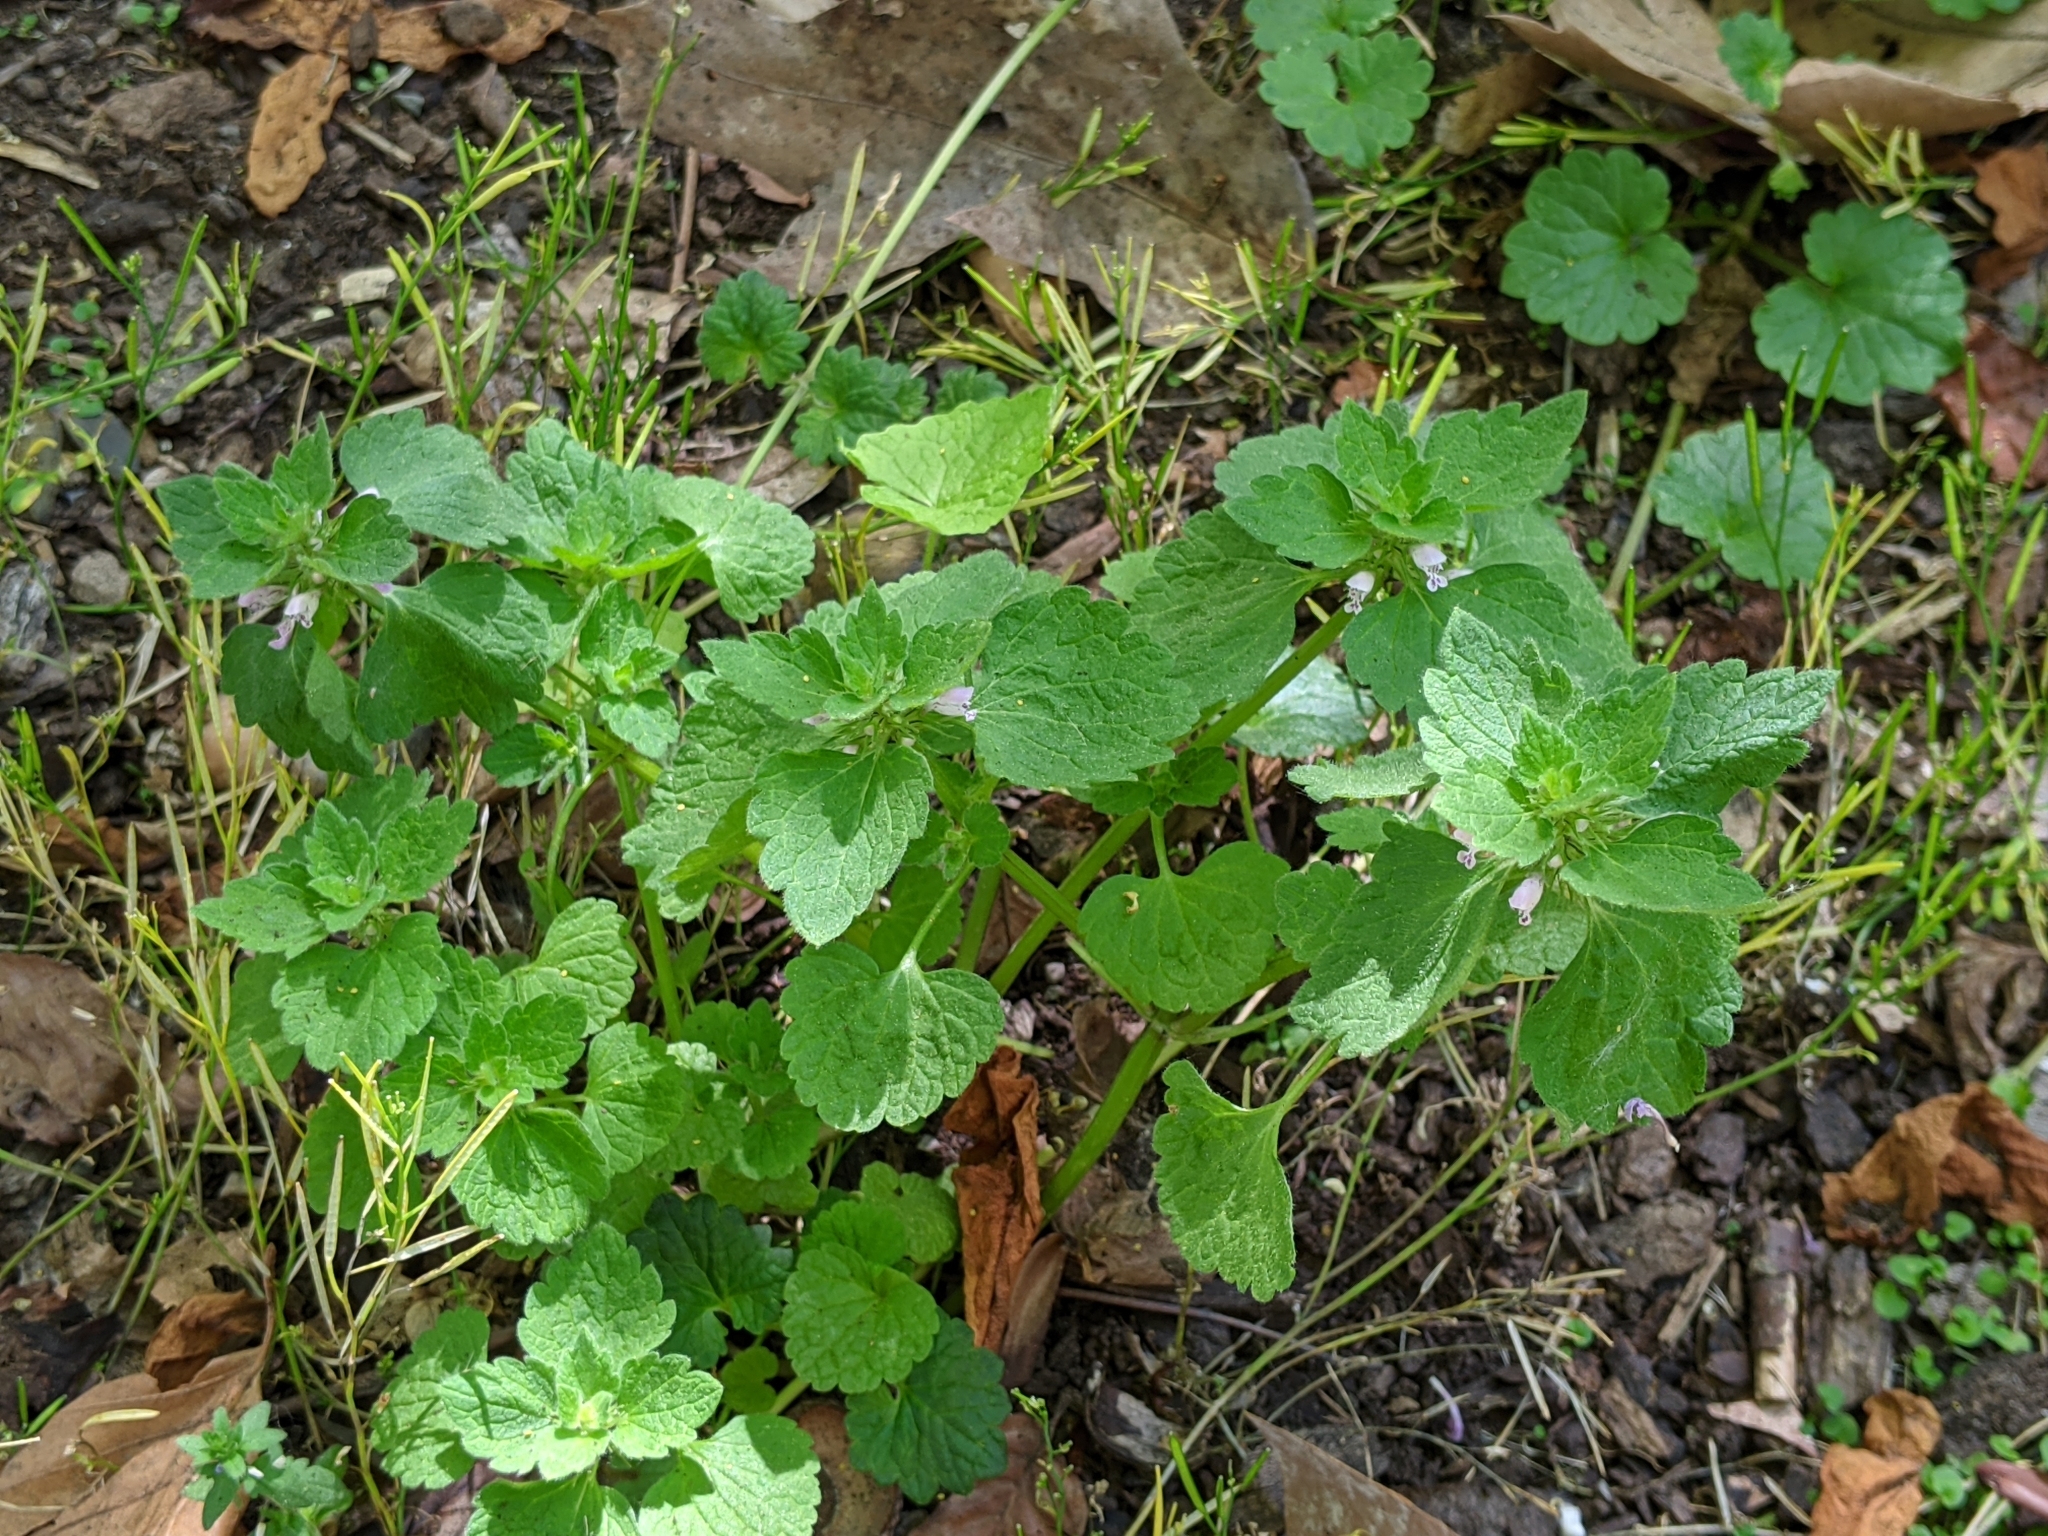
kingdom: Plantae
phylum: Tracheophyta
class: Magnoliopsida
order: Lamiales
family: Lamiaceae
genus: Lamium
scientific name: Lamium purpureum
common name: Red dead-nettle
